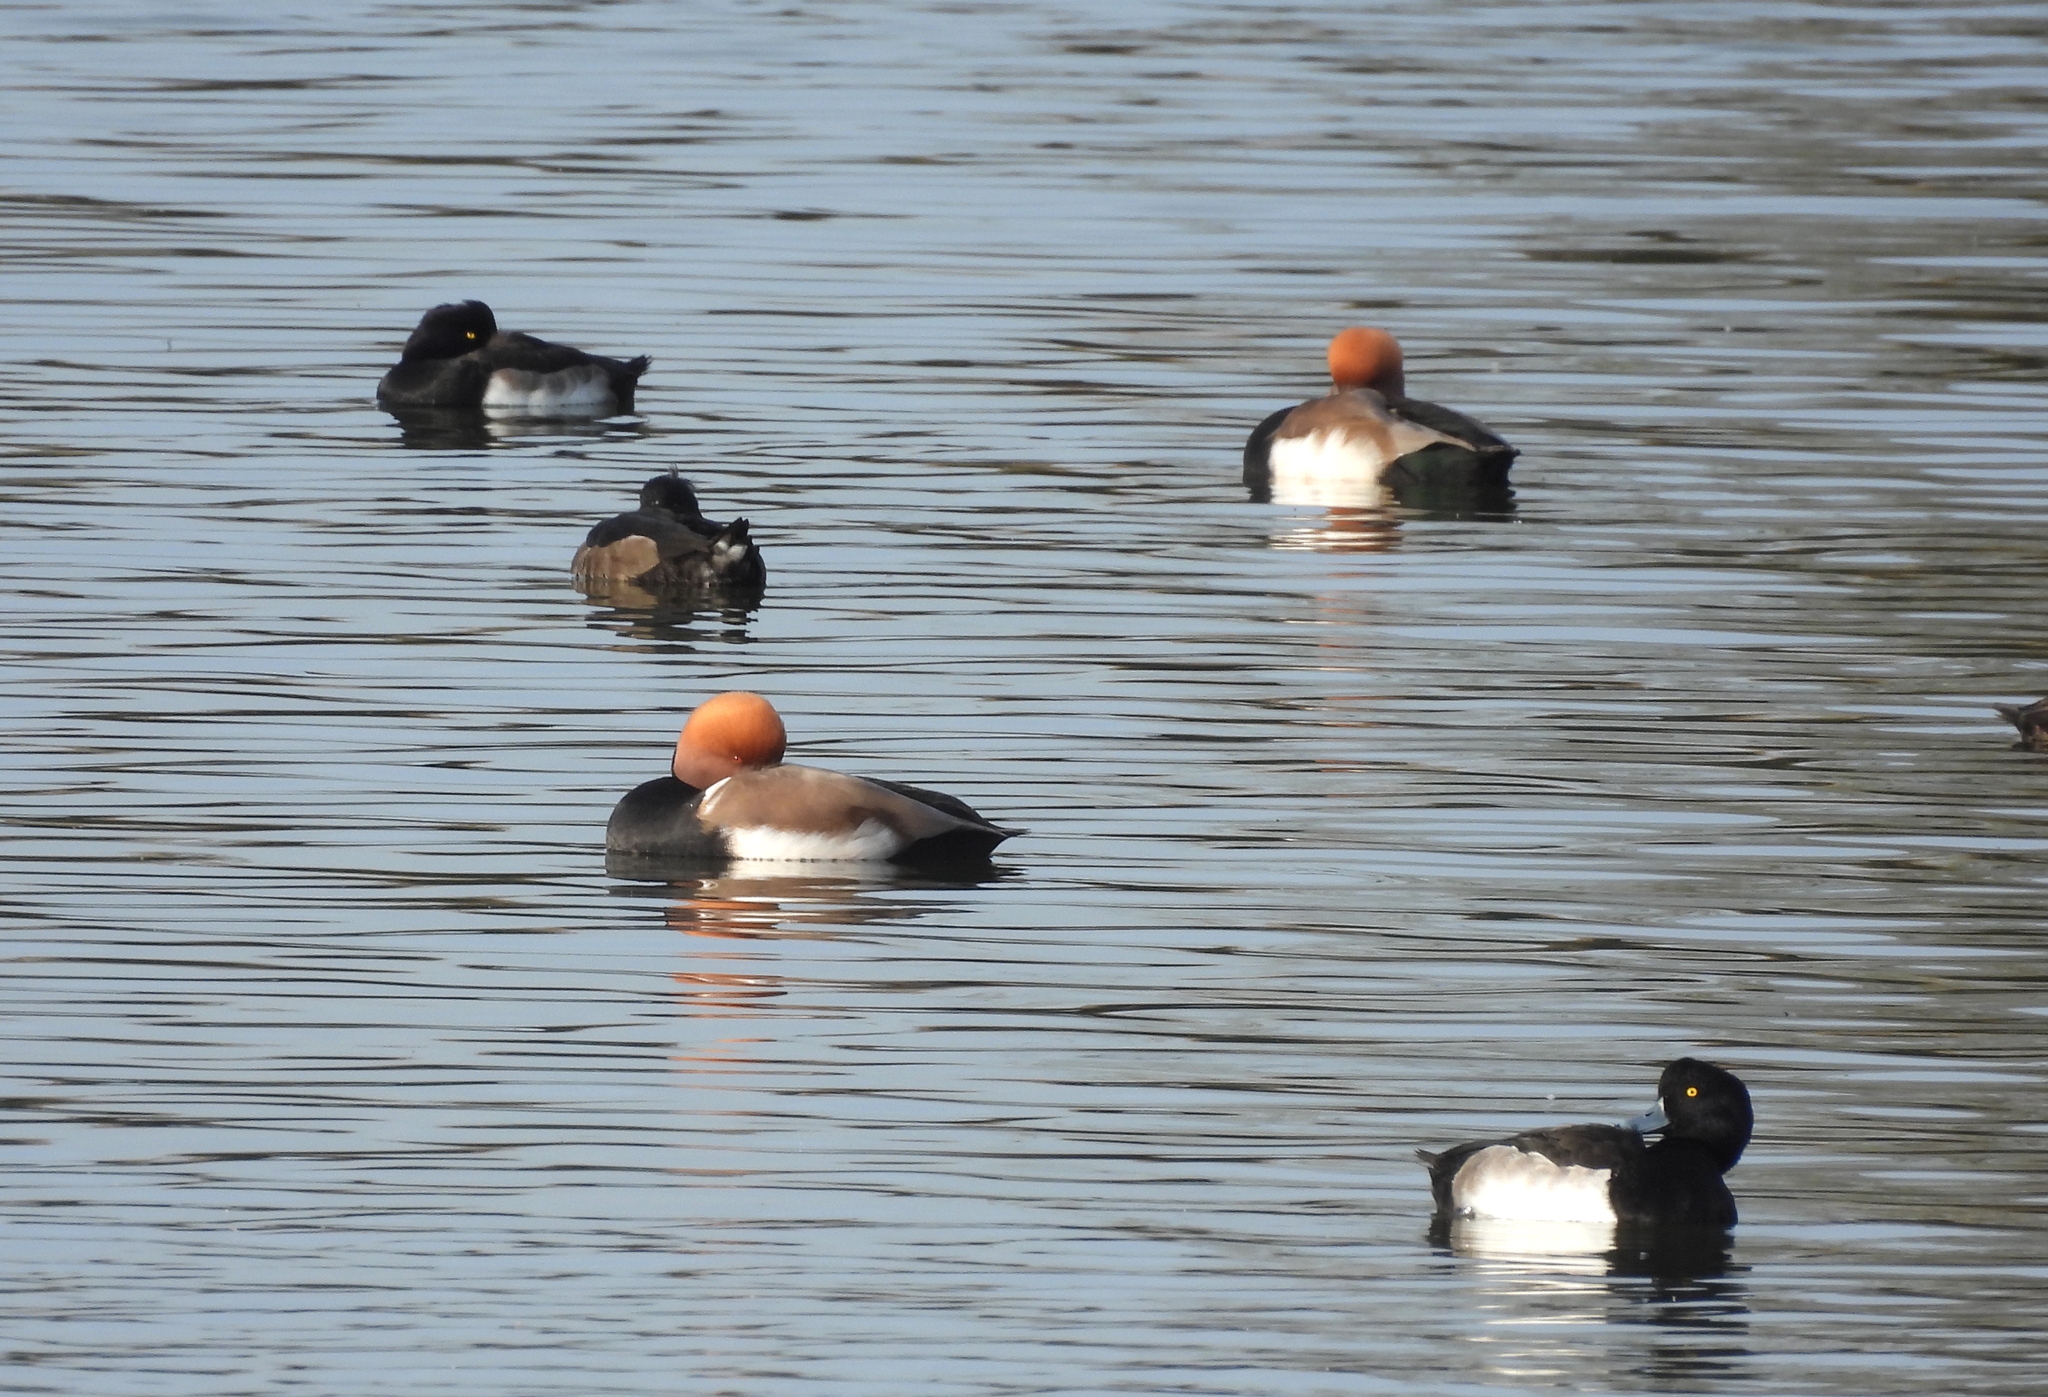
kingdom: Animalia
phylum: Chordata
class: Aves
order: Anseriformes
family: Anatidae
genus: Netta
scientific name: Netta rufina
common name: Red-crested pochard
